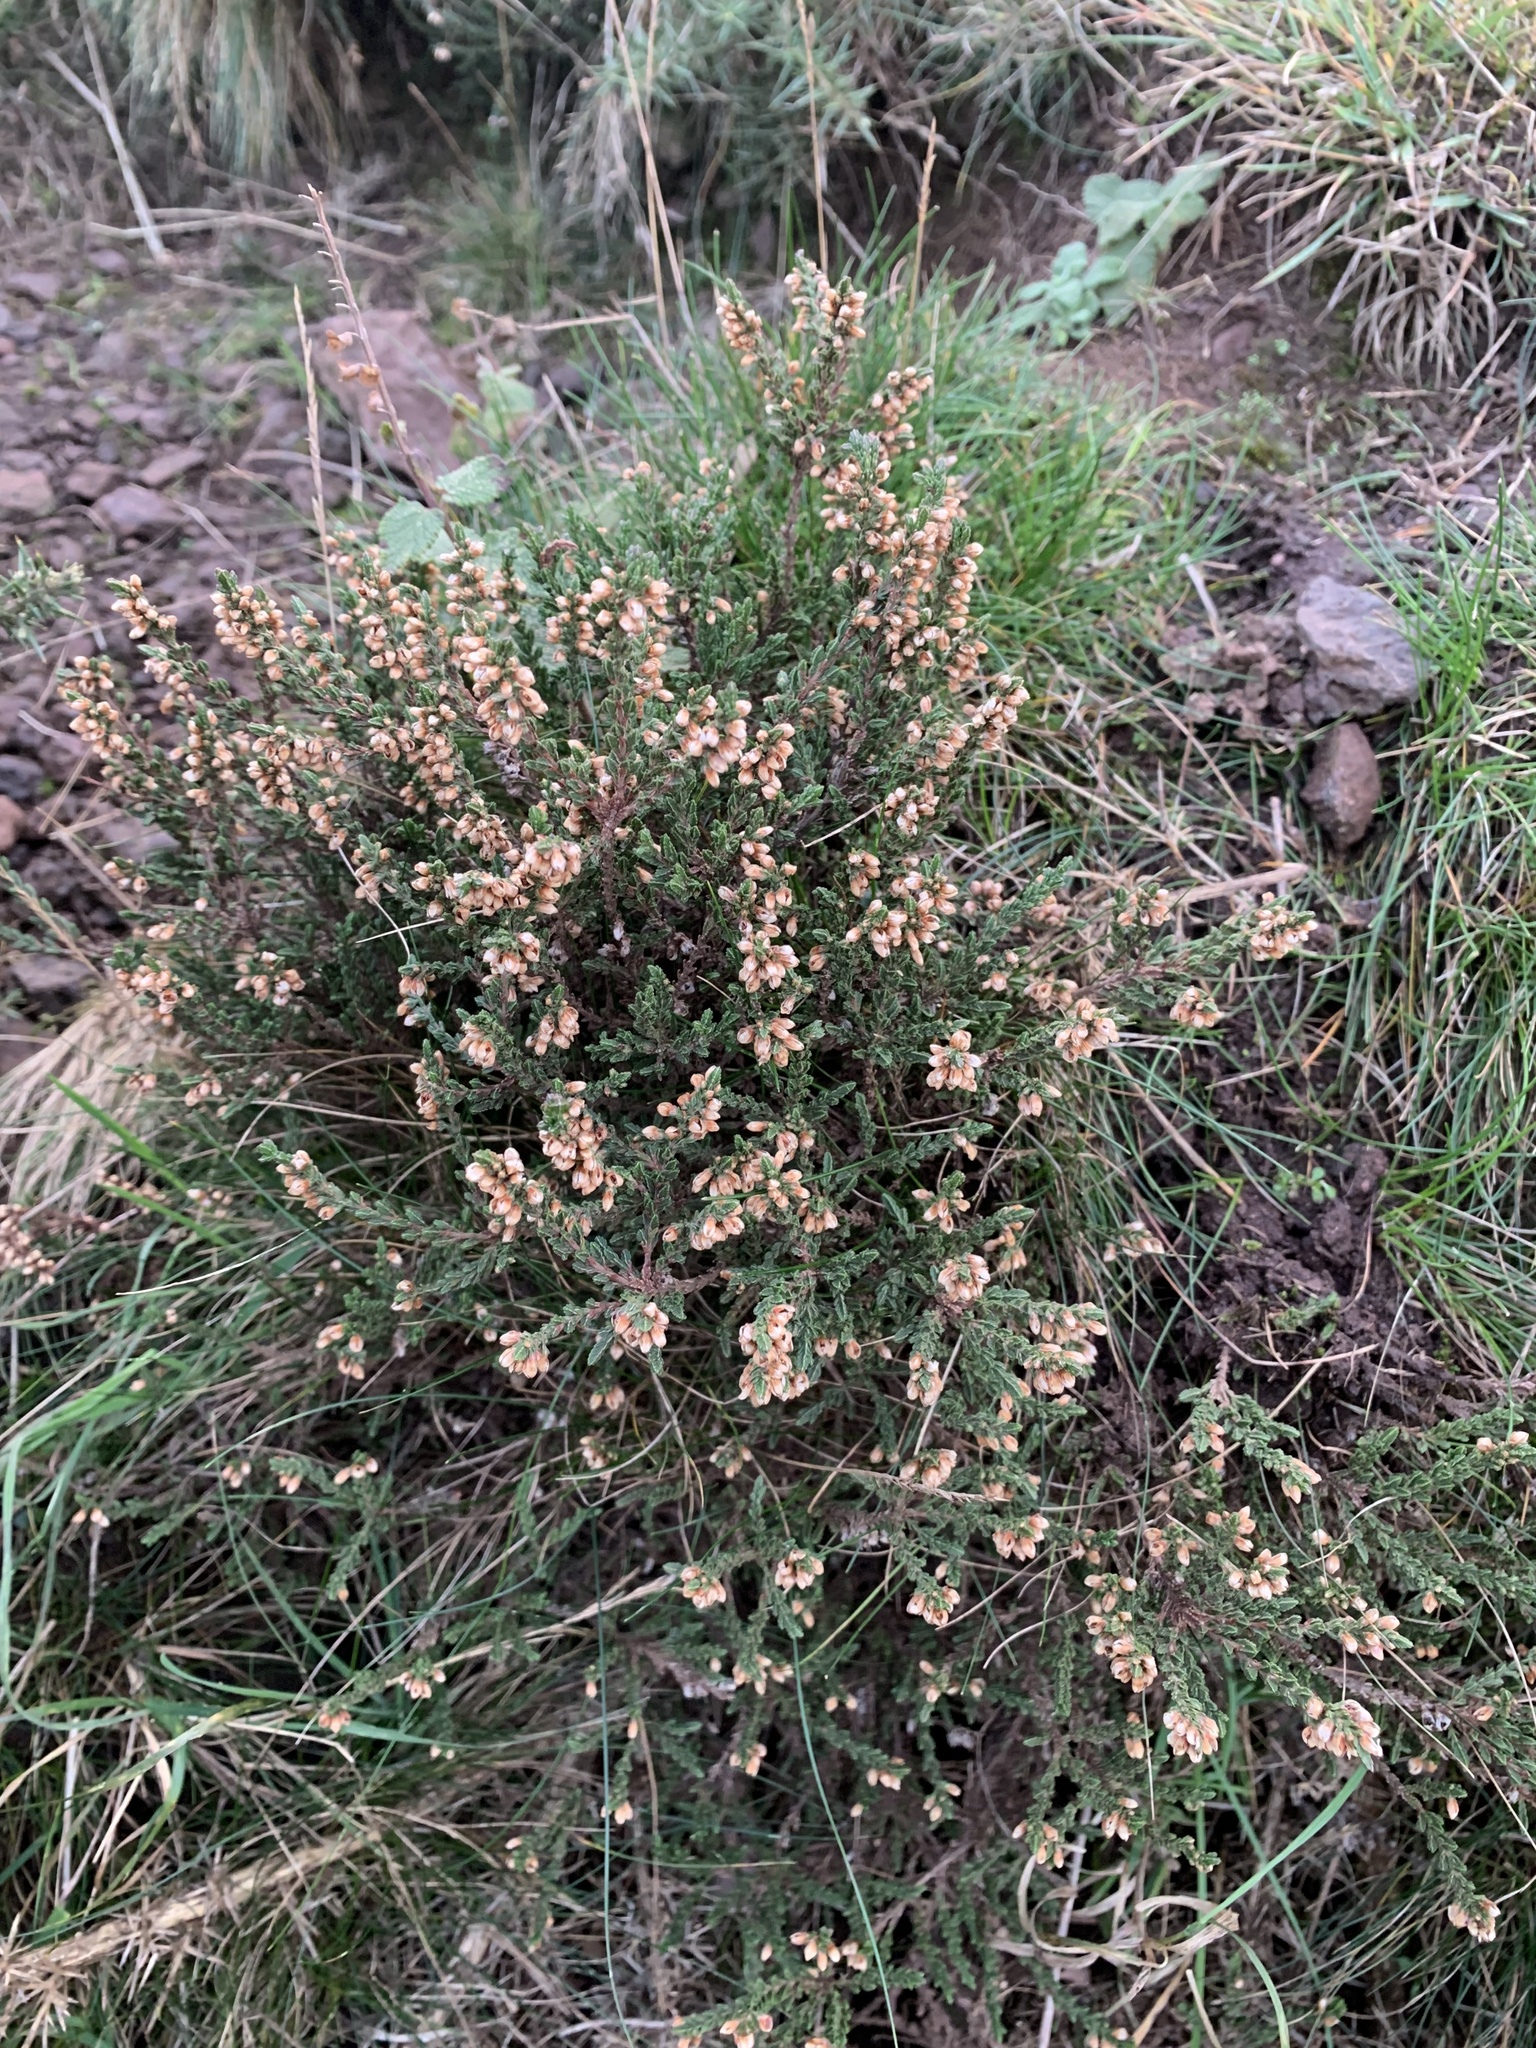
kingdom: Plantae
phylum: Tracheophyta
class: Magnoliopsida
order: Ericales
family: Ericaceae
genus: Calluna
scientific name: Calluna vulgaris
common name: Heather
